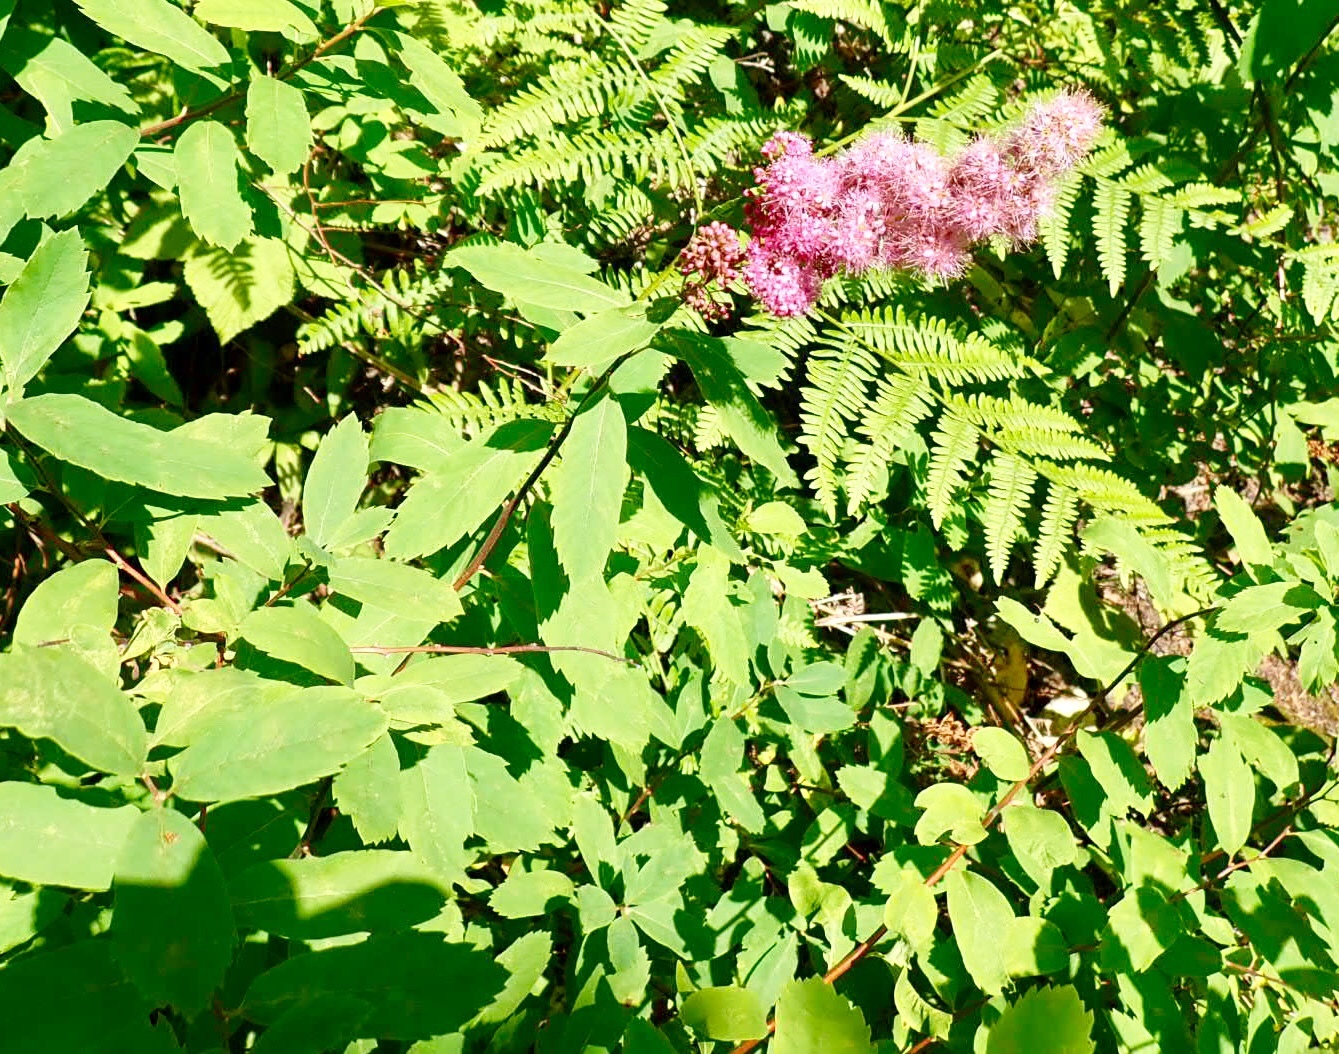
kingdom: Plantae
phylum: Tracheophyta
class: Magnoliopsida
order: Rosales
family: Rosaceae
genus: Spiraea
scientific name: Spiraea douglasii
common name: Steeplebush
